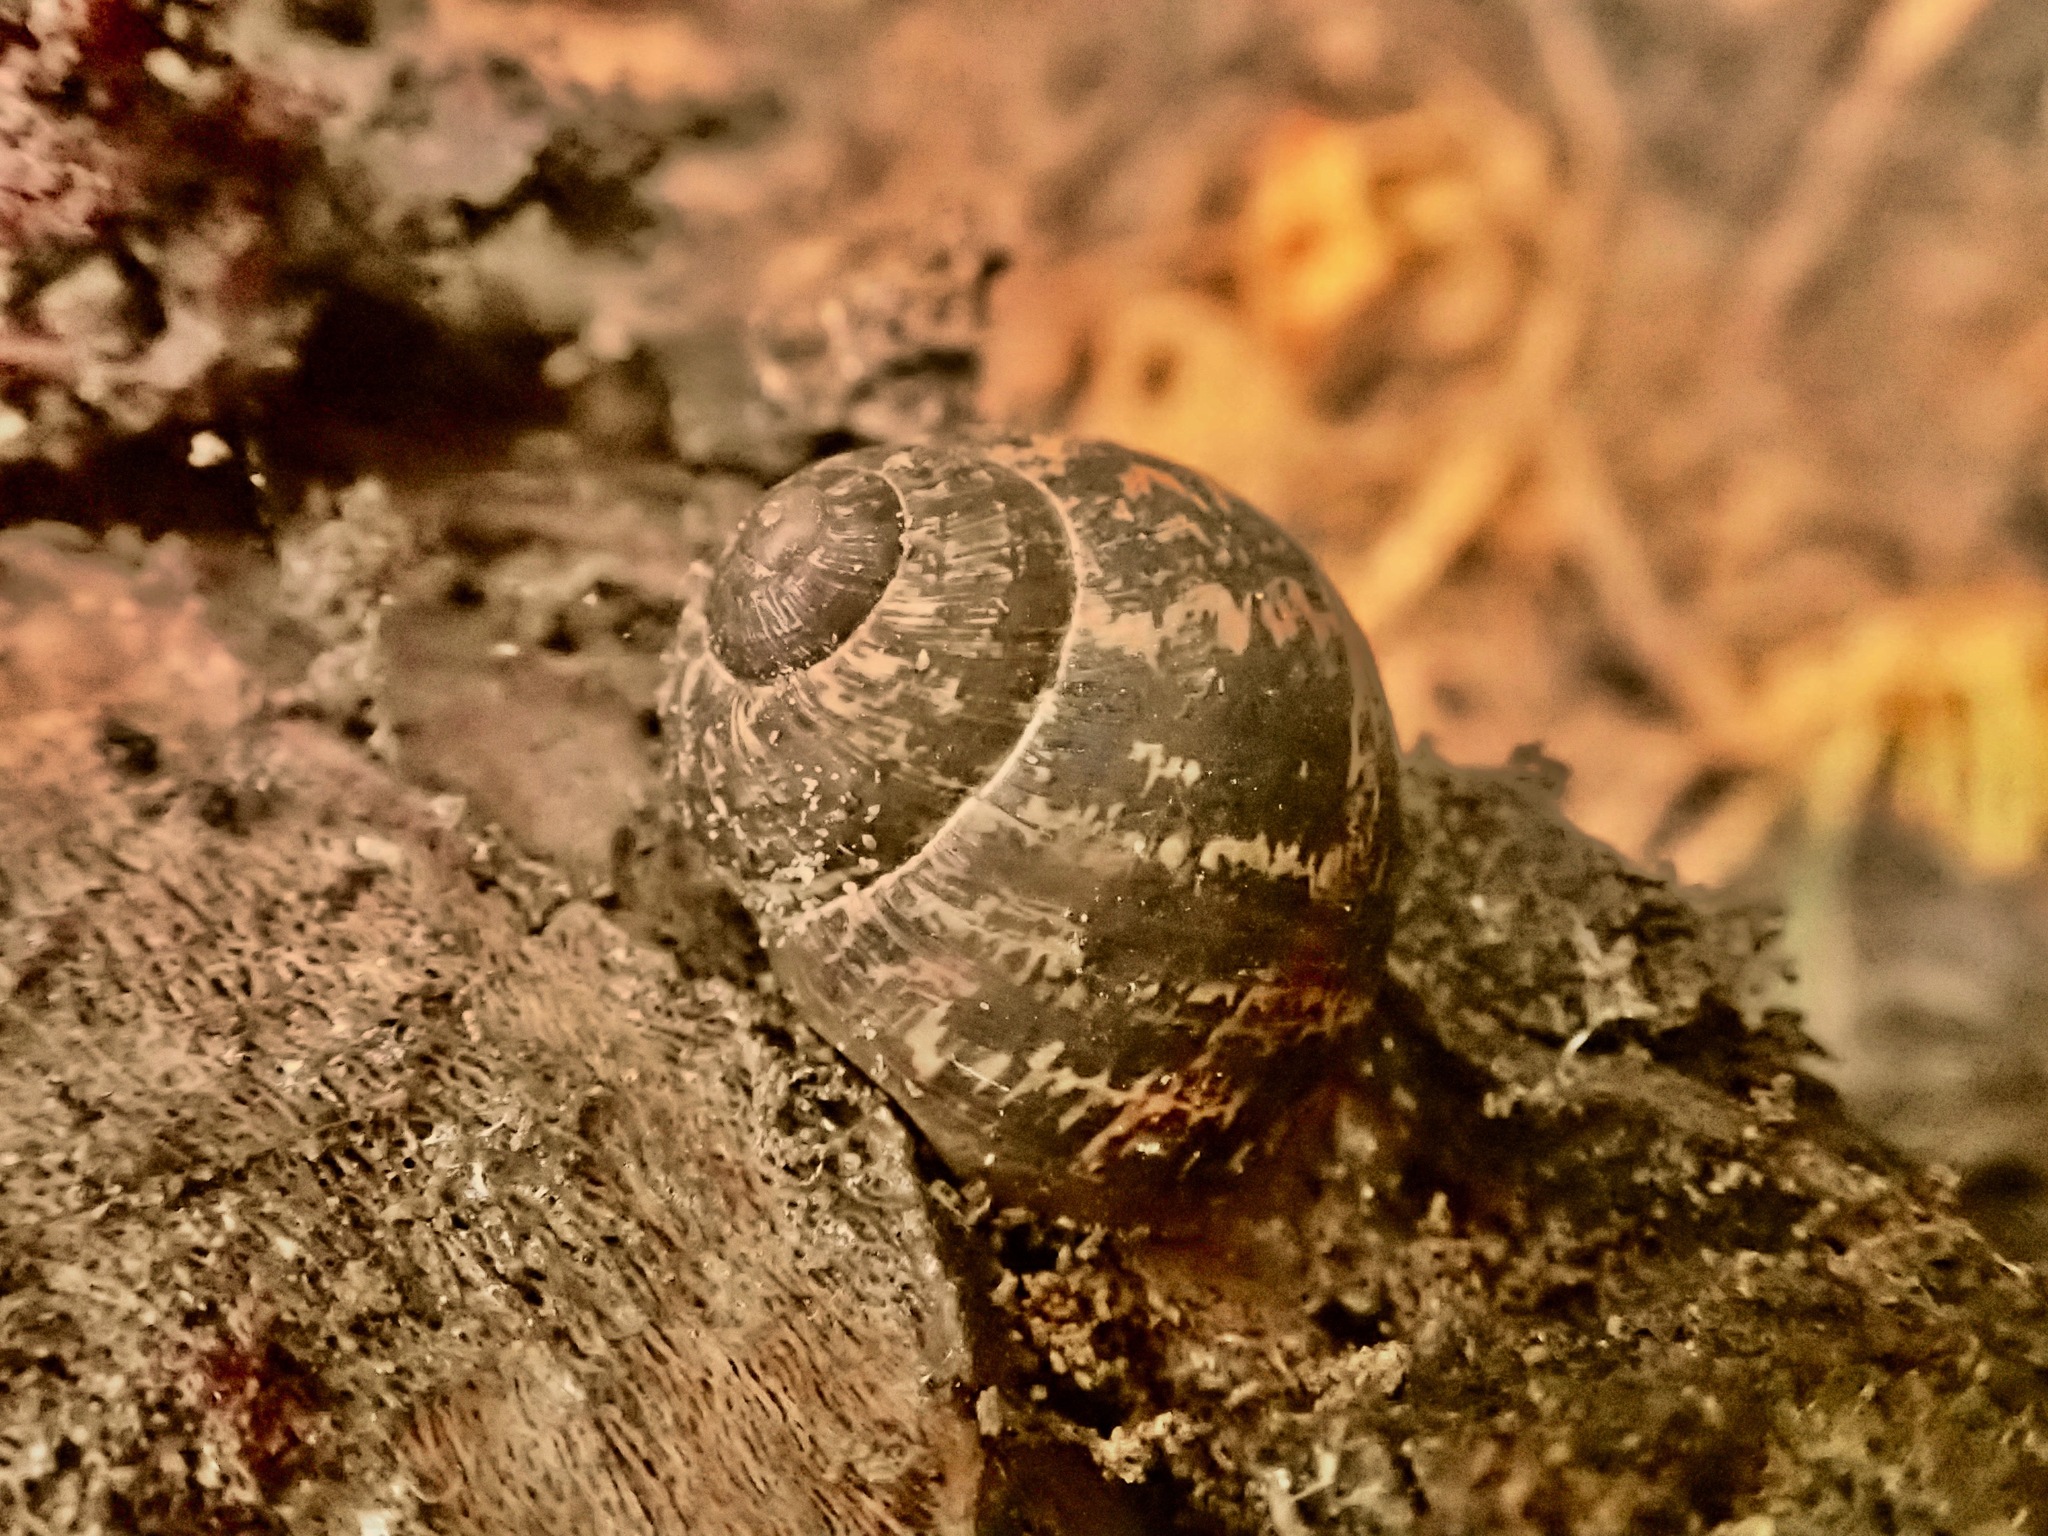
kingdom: Animalia
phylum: Mollusca
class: Gastropoda
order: Stylommatophora
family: Helicidae
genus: Cornu
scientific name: Cornu aspersum
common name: Brown garden snail
